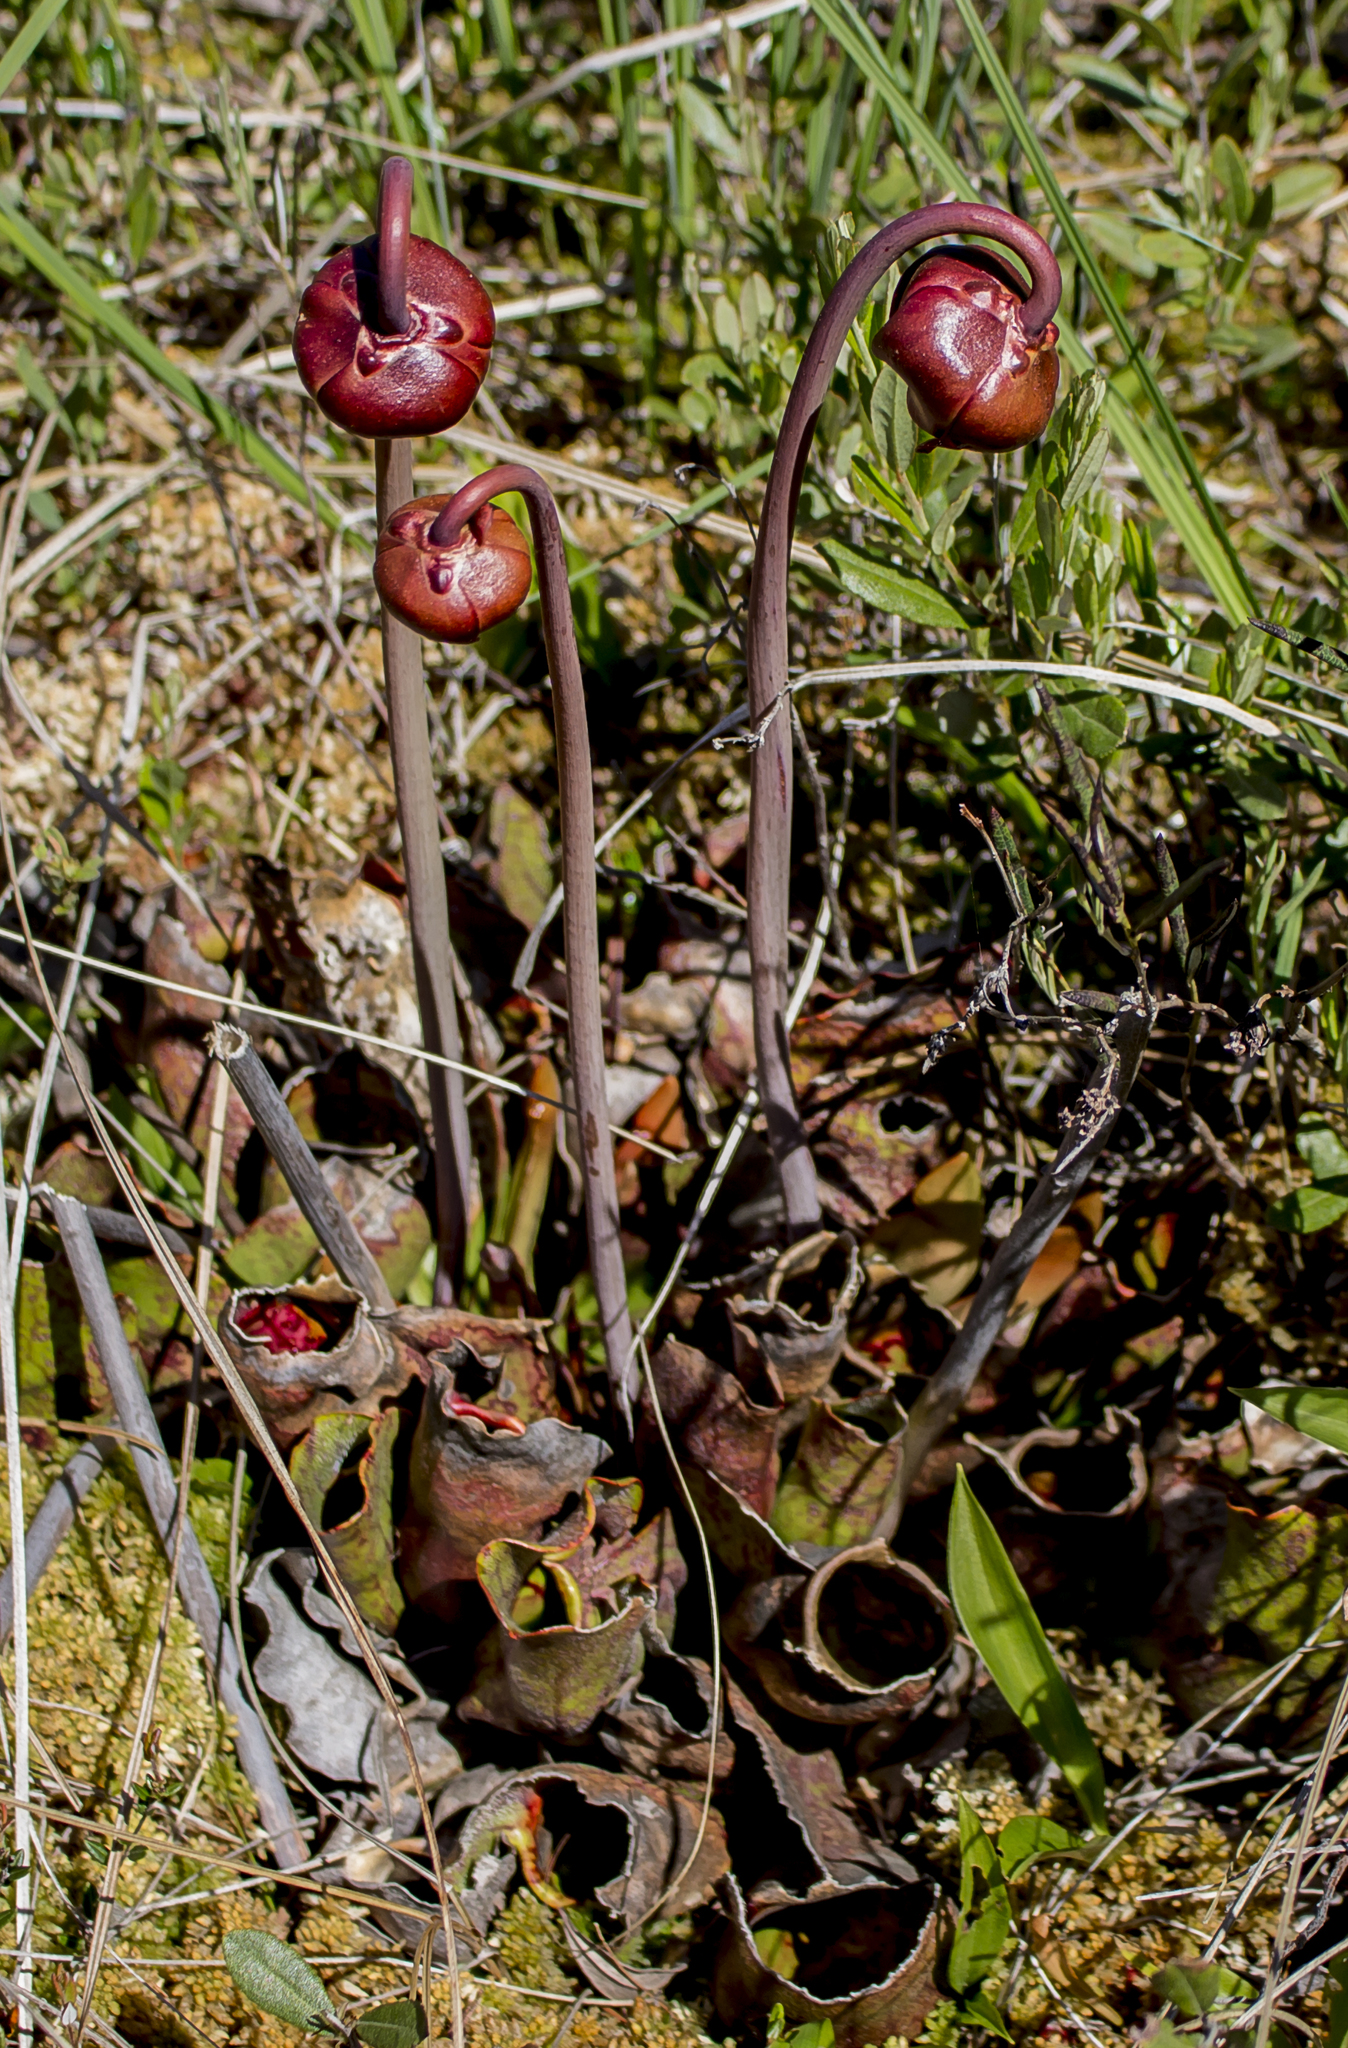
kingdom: Plantae
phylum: Tracheophyta
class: Magnoliopsida
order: Ericales
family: Sarraceniaceae
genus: Sarracenia
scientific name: Sarracenia purpurea
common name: Pitcherplant
